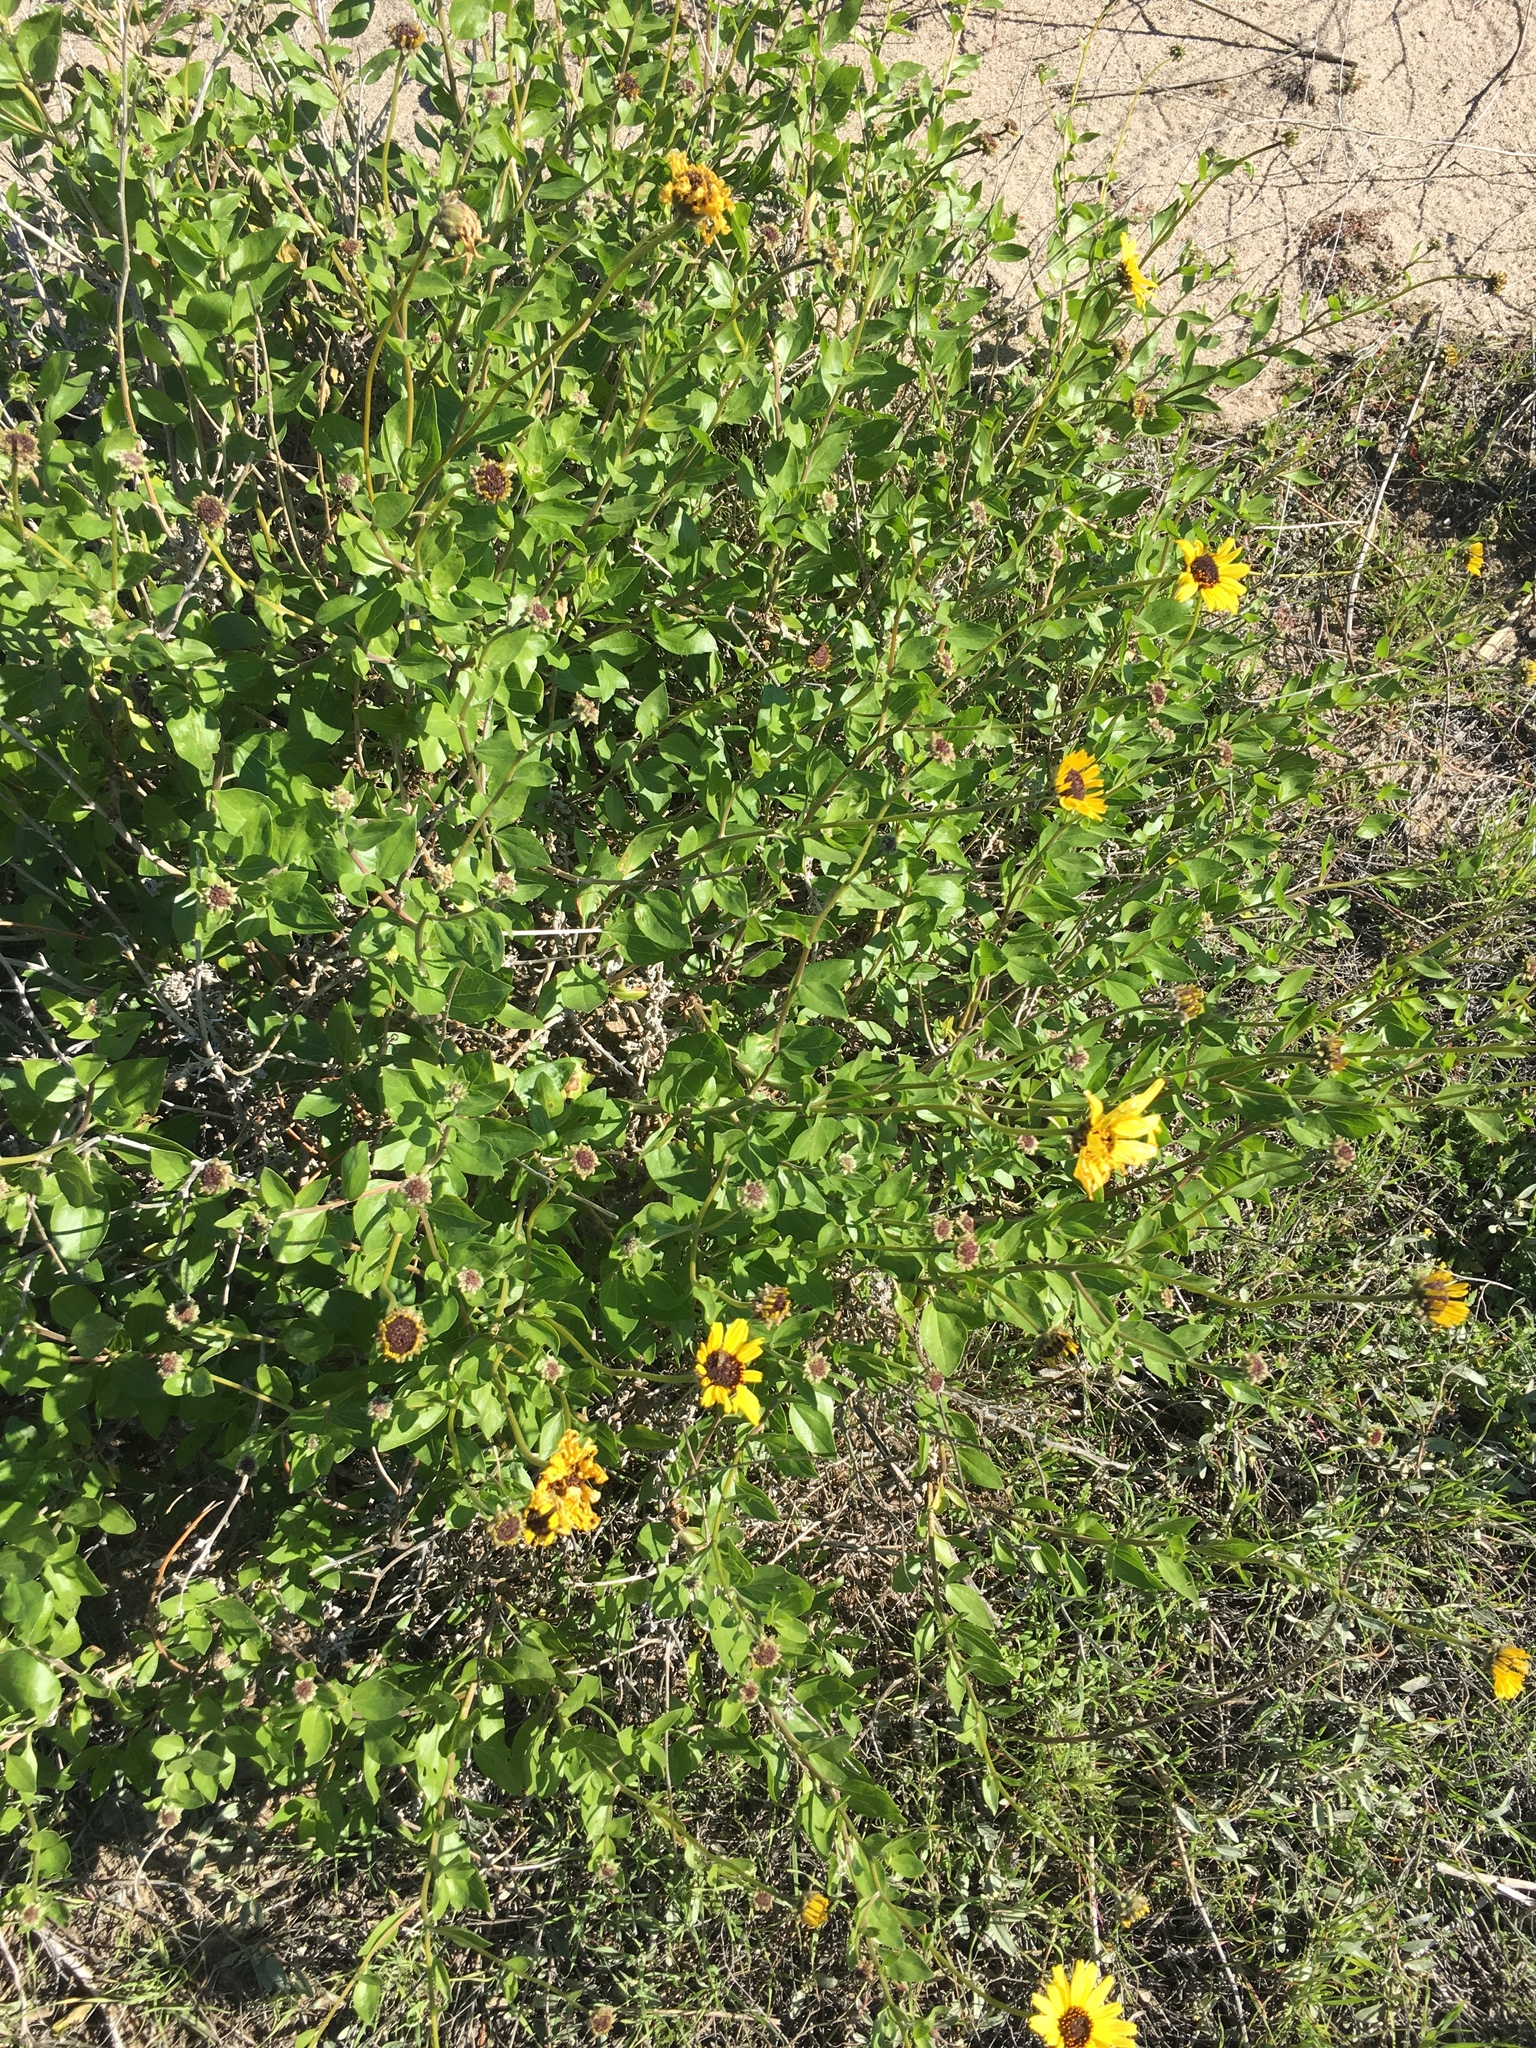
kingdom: Plantae
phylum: Tracheophyta
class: Magnoliopsida
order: Asterales
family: Asteraceae
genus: Encelia
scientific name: Encelia californica
